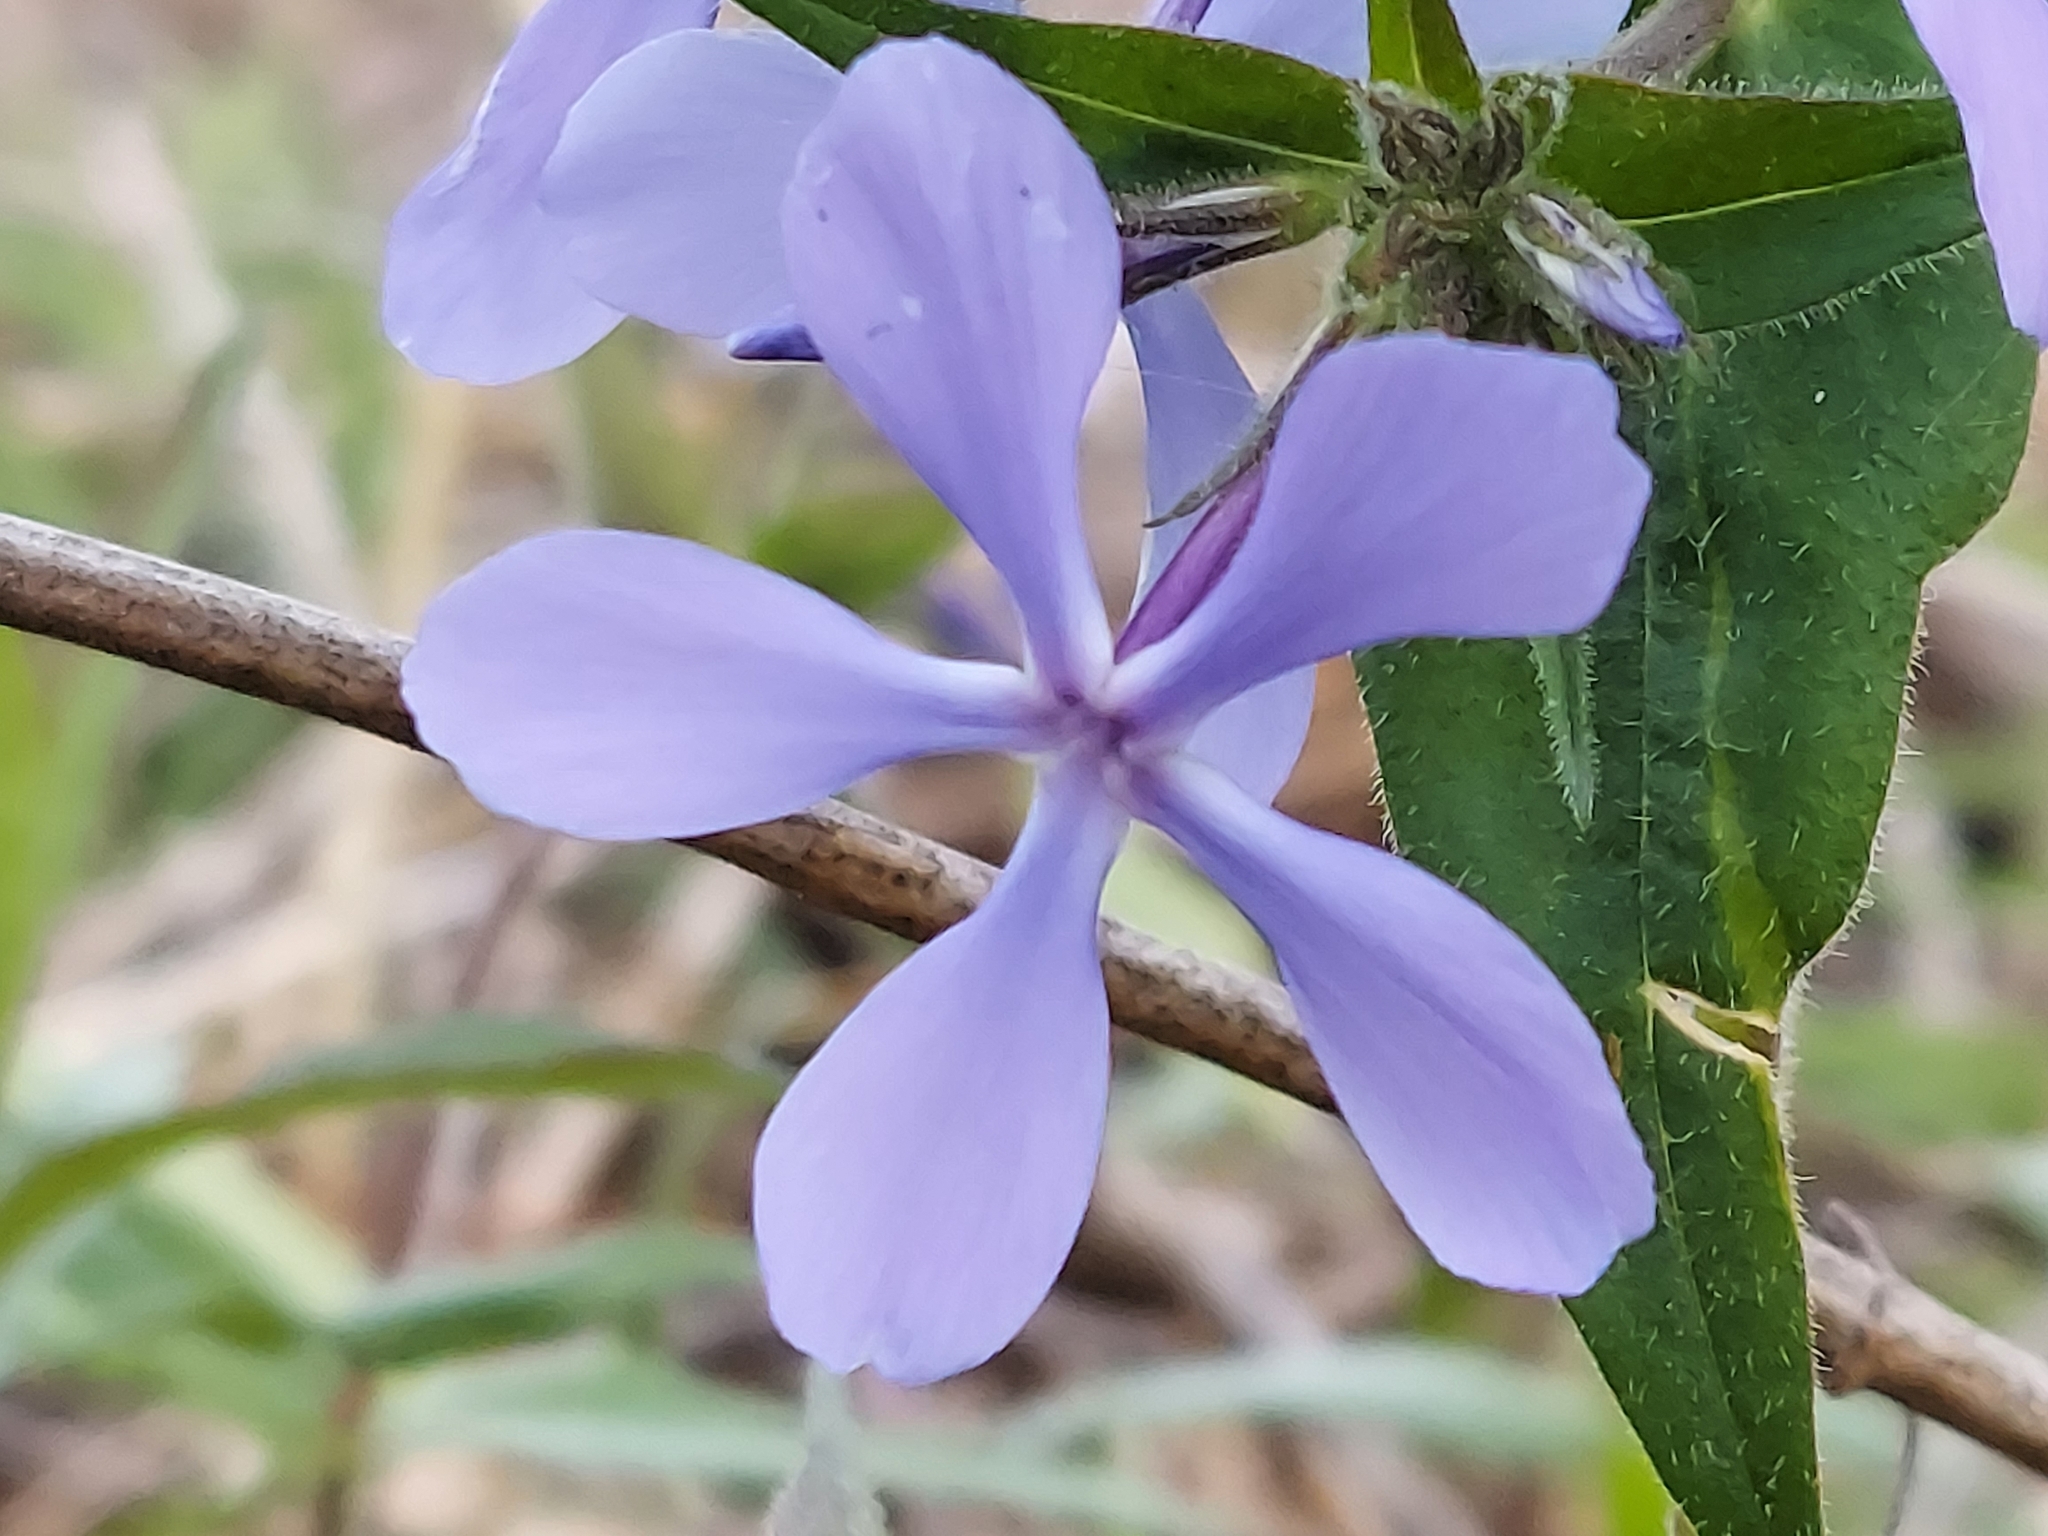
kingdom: Plantae
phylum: Tracheophyta
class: Magnoliopsida
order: Ericales
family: Polemoniaceae
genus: Phlox
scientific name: Phlox divaricata
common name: Blue phlox
